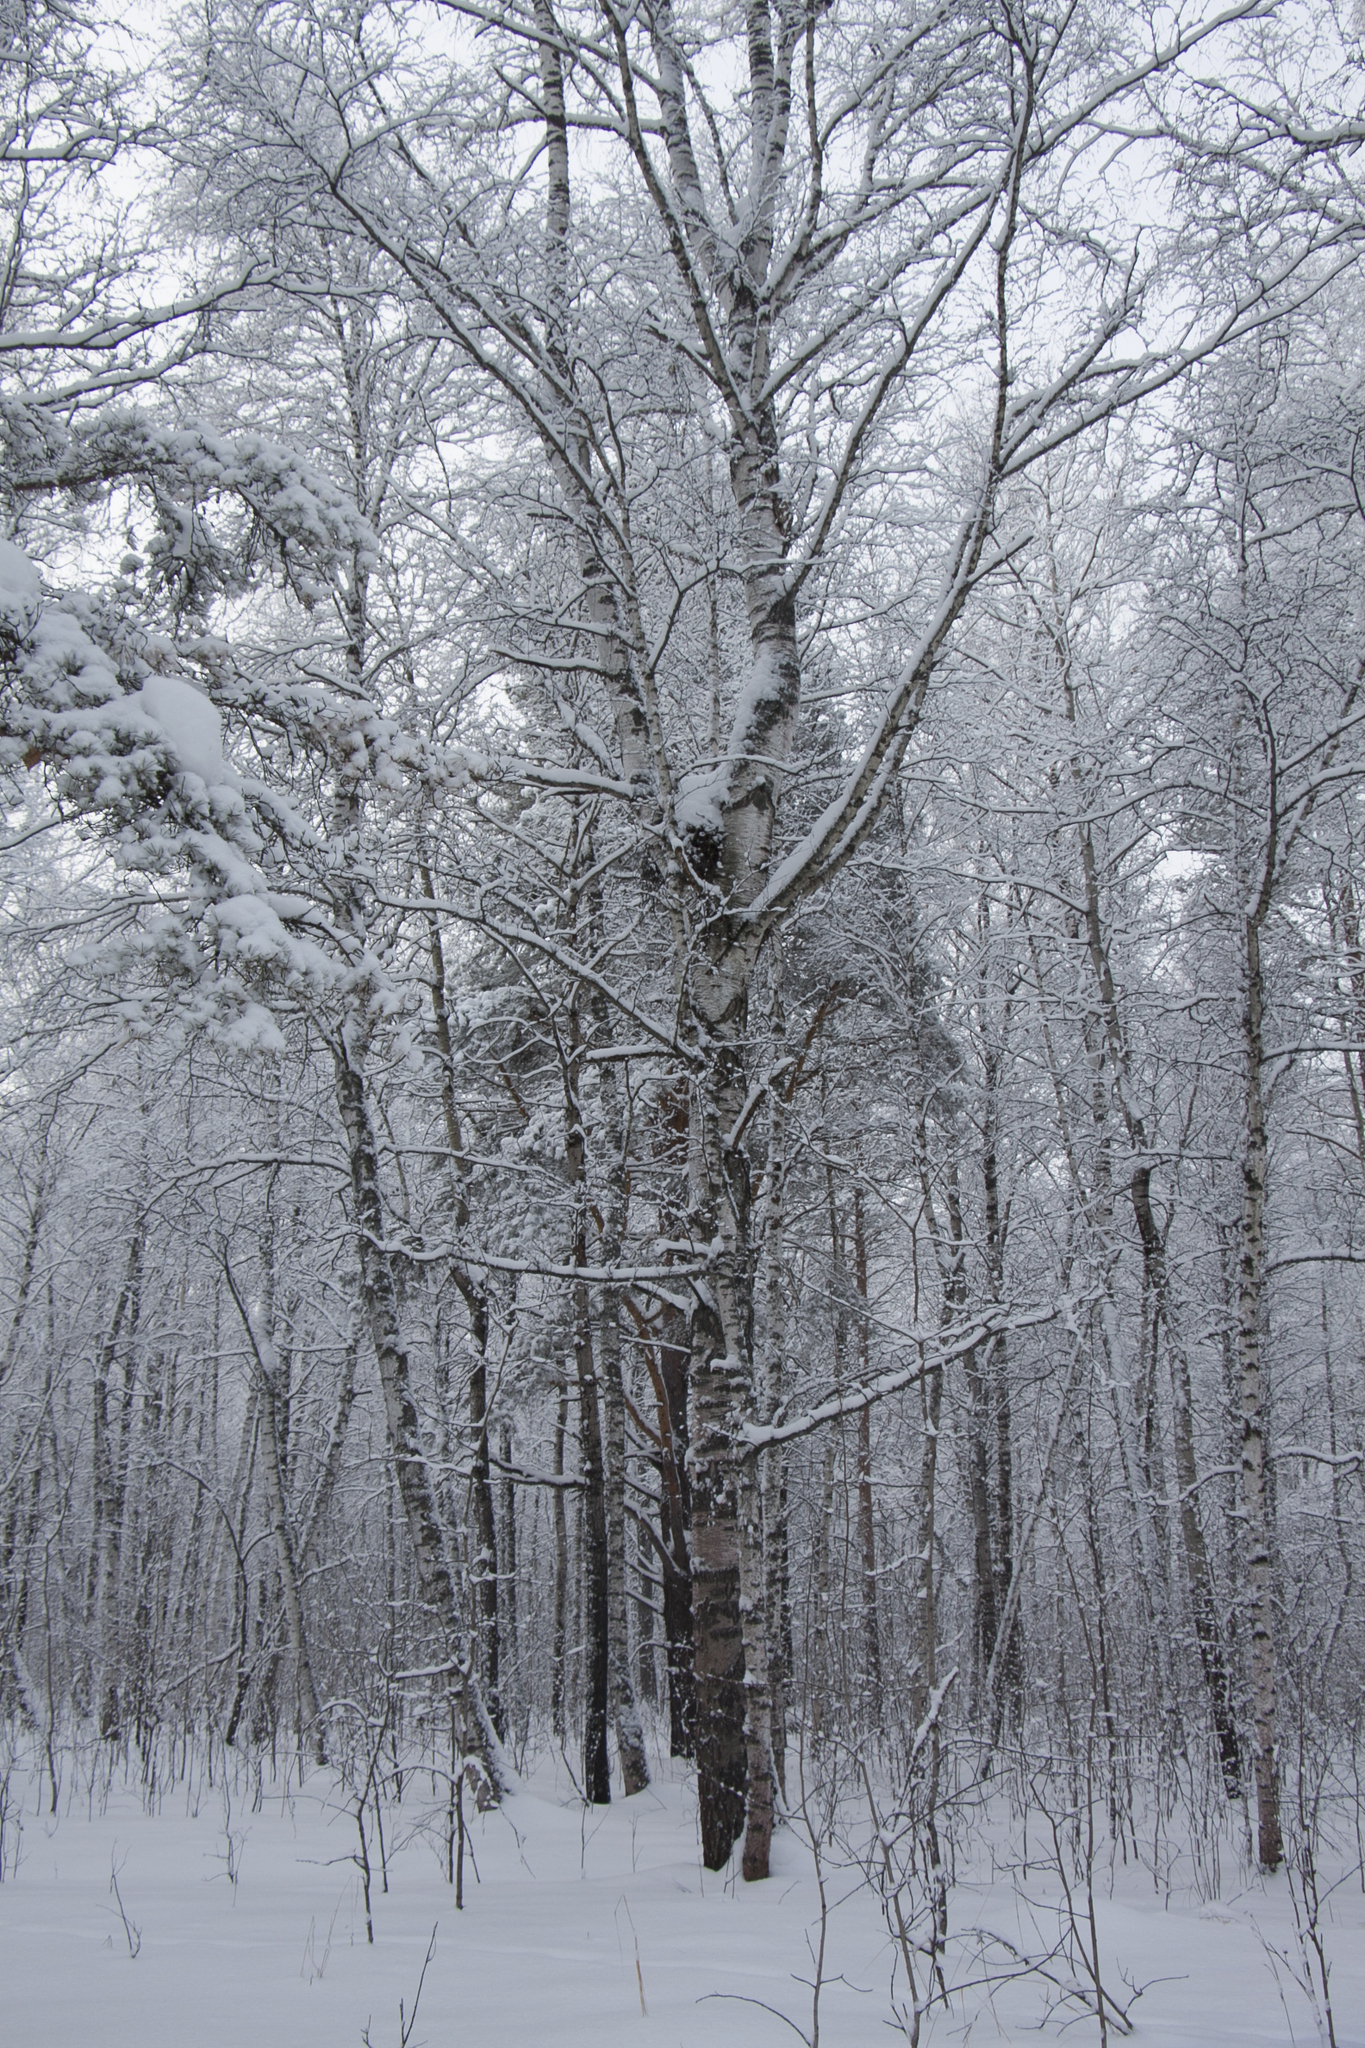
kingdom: Plantae
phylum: Tracheophyta
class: Magnoliopsida
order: Fagales
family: Betulaceae
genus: Betula
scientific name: Betula pendula
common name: Silver birch
